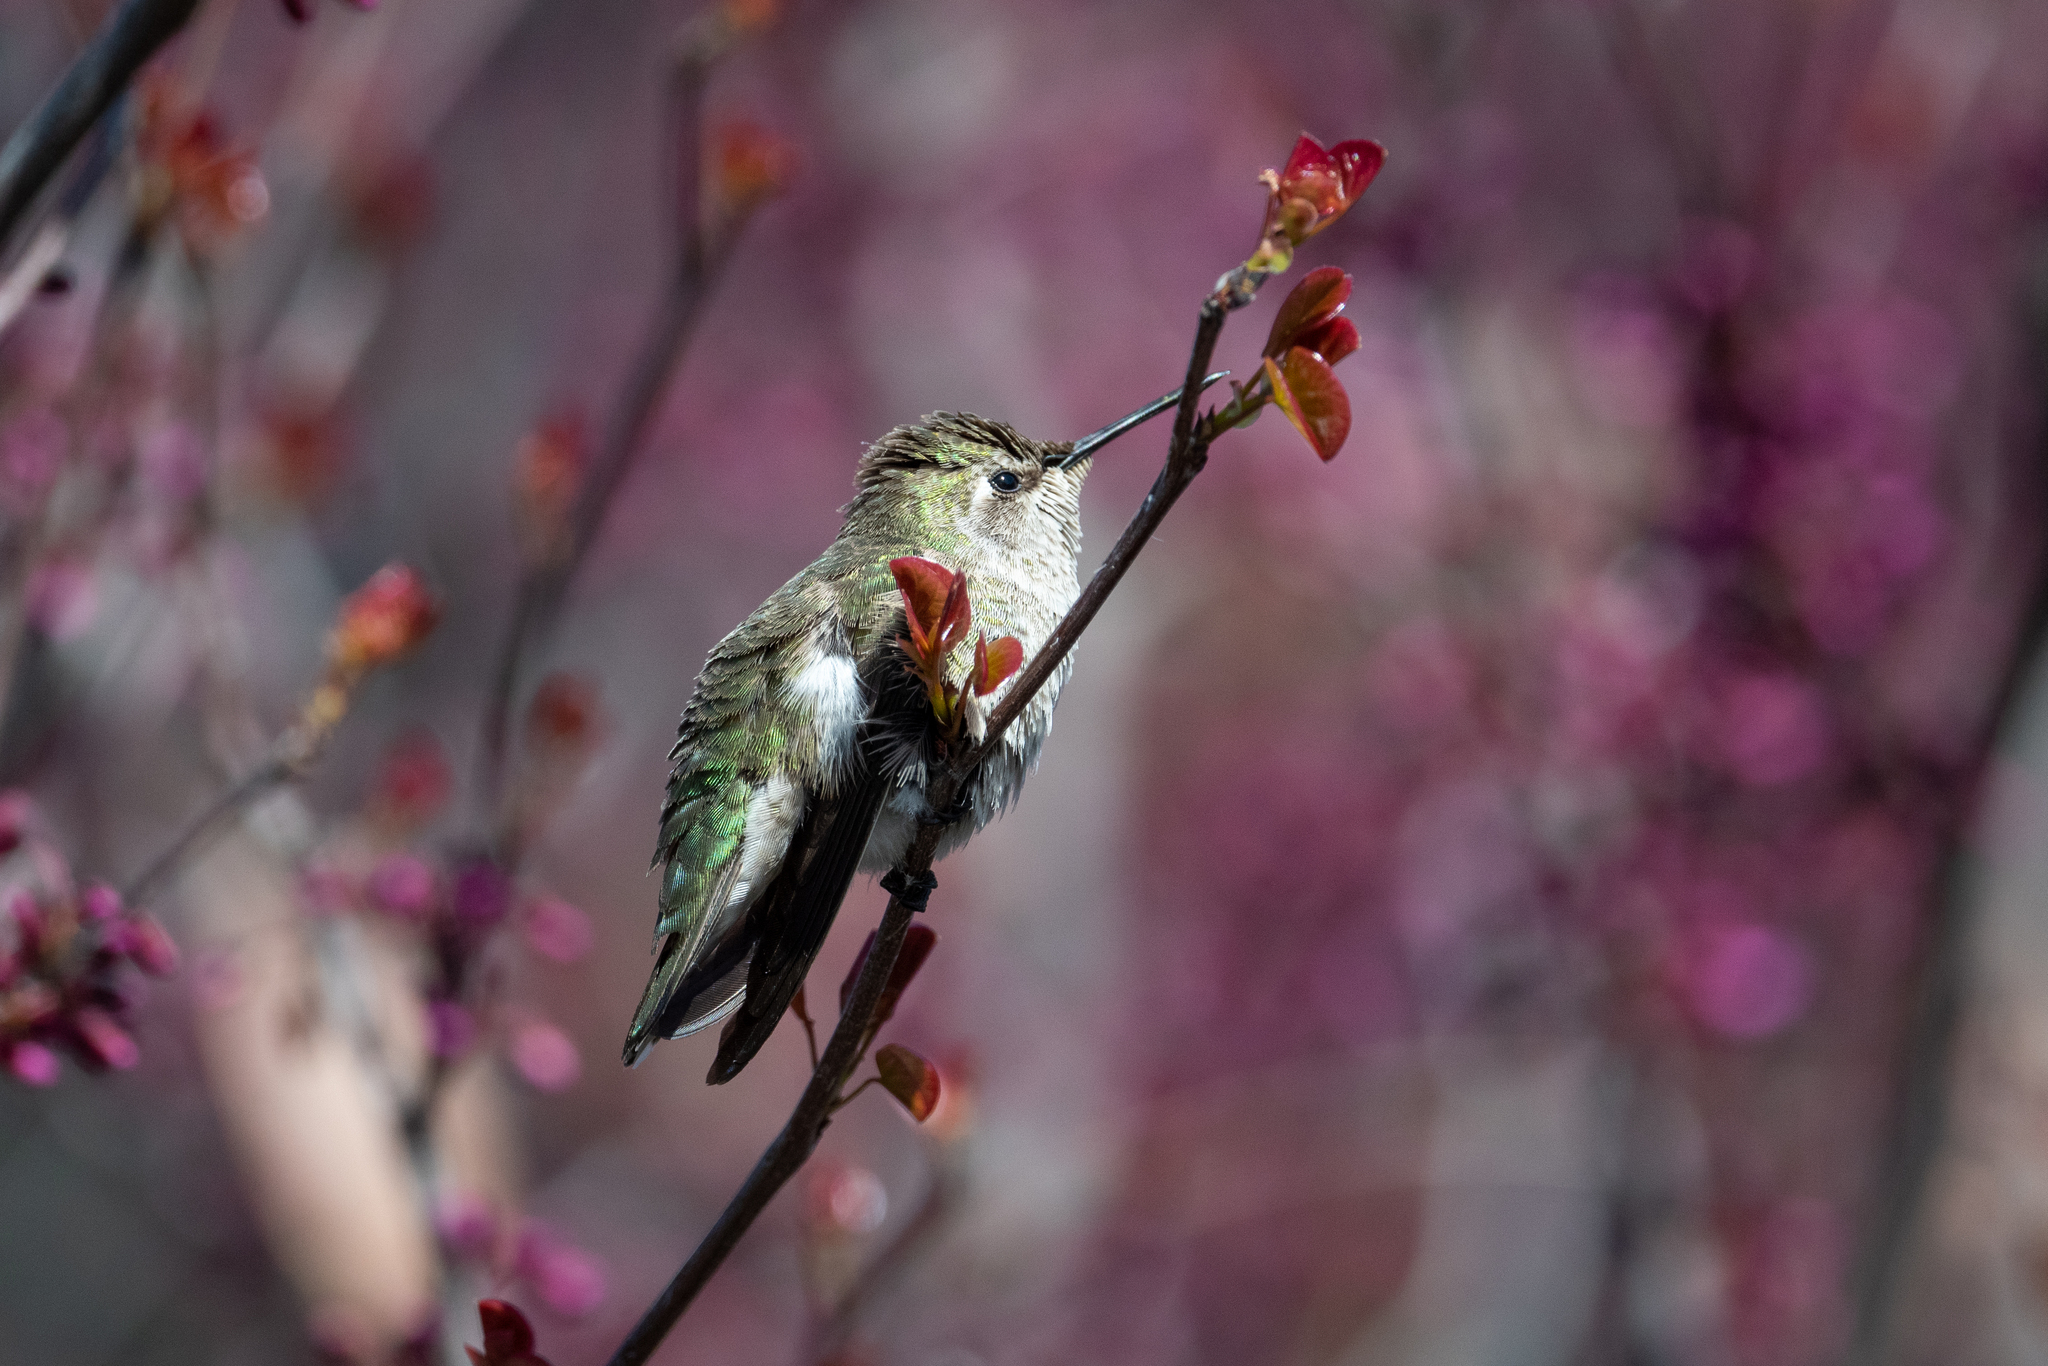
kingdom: Animalia
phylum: Chordata
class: Aves
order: Apodiformes
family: Trochilidae
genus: Calypte
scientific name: Calypte anna
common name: Anna's hummingbird
